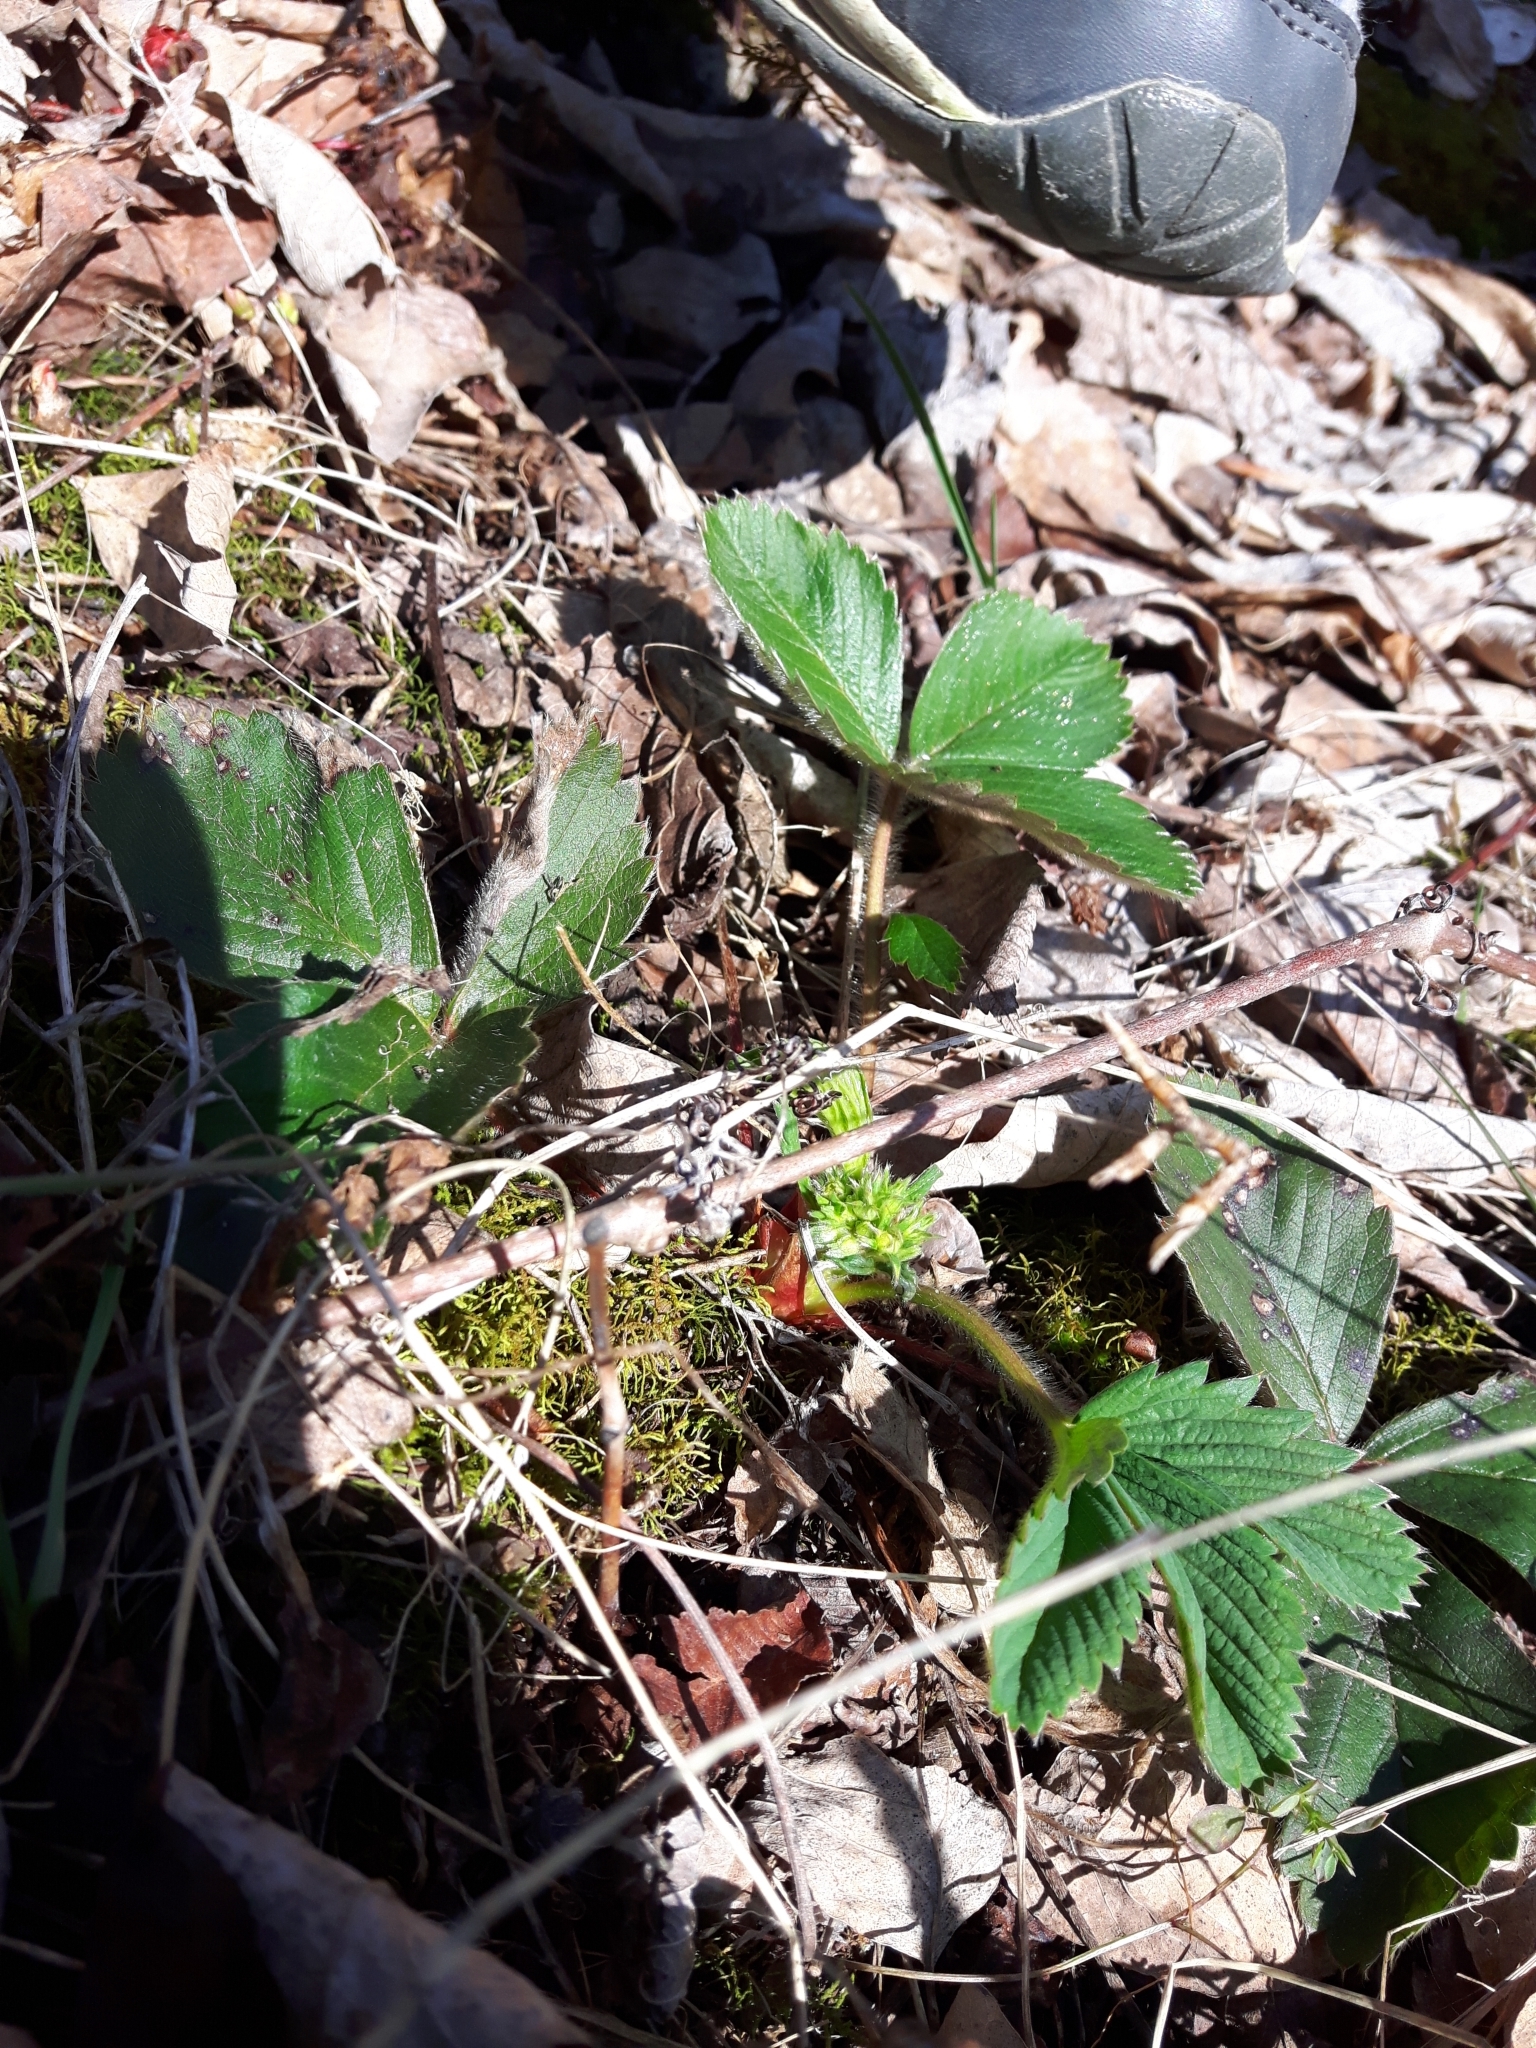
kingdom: Plantae
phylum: Tracheophyta
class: Magnoliopsida
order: Rosales
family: Rosaceae
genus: Fragaria
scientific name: Fragaria virginiana
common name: Thickleaved wild strawberry
